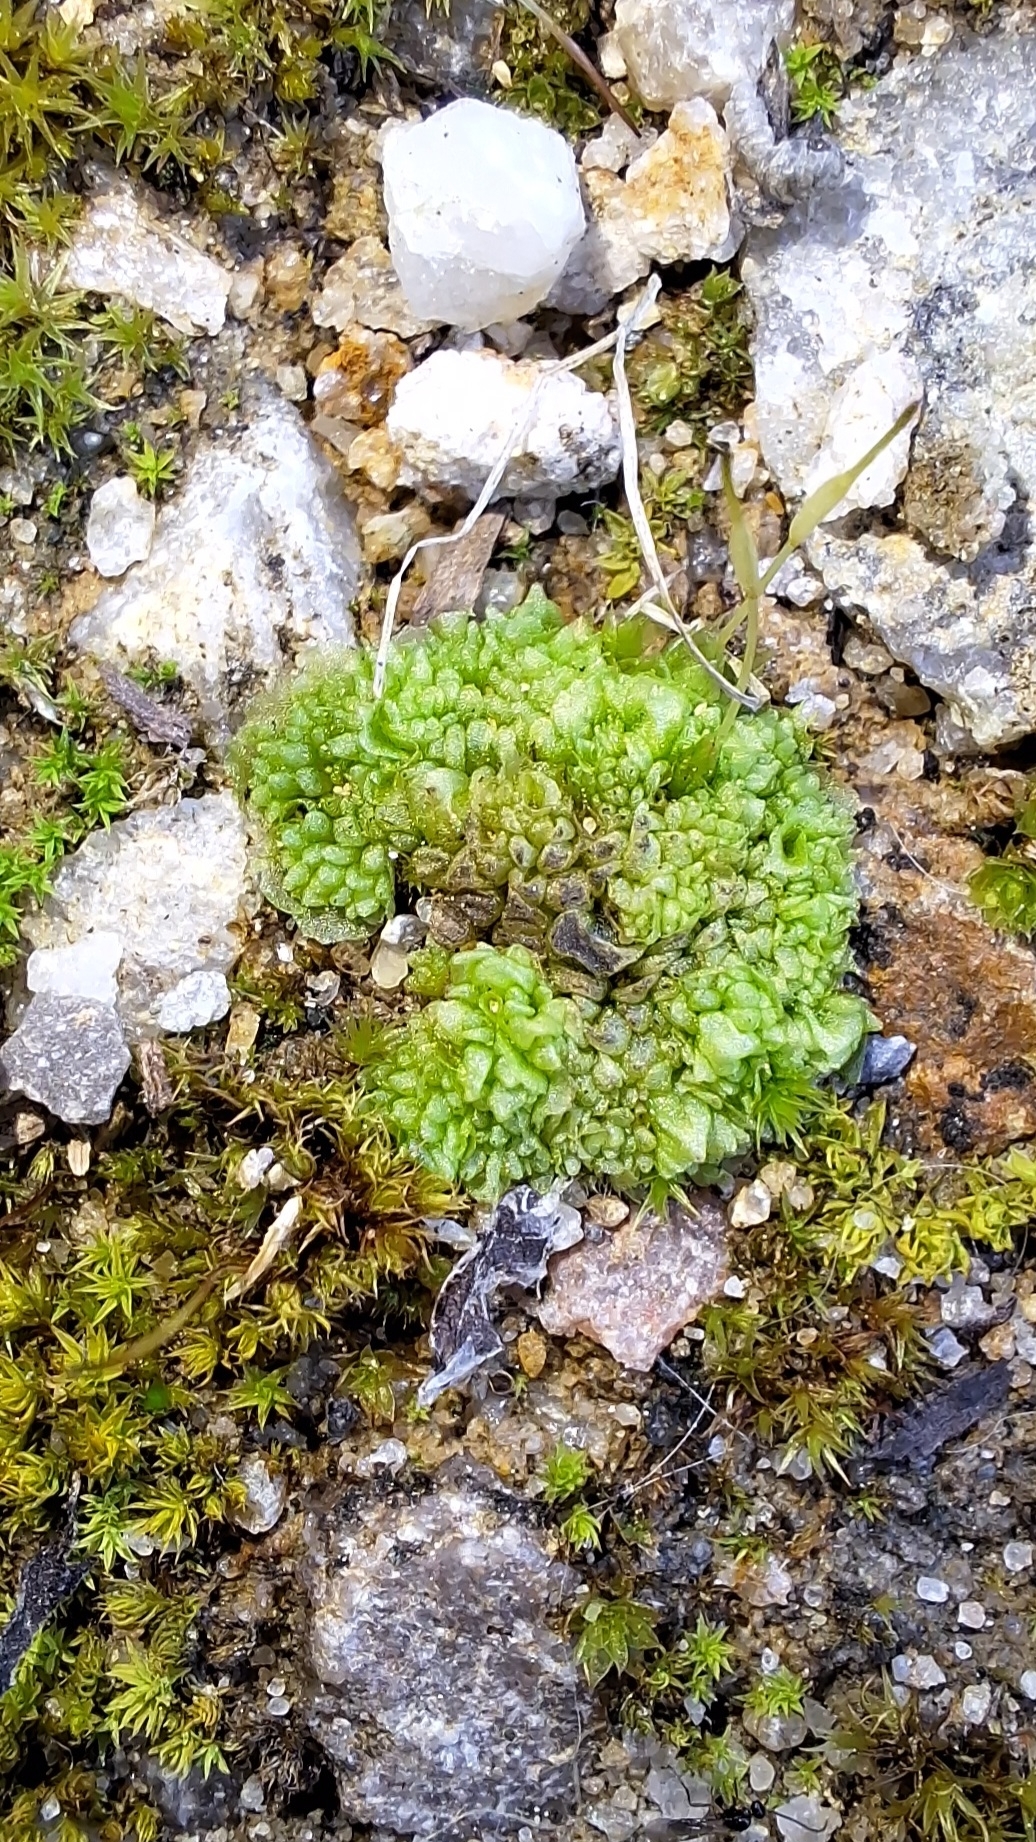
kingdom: Plantae
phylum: Marchantiophyta
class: Marchantiopsida
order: Sphaerocarpales
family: Sphaerocarpaceae
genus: Sphaerocarpos
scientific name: Sphaerocarpos texanus
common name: Texas balloonwort
